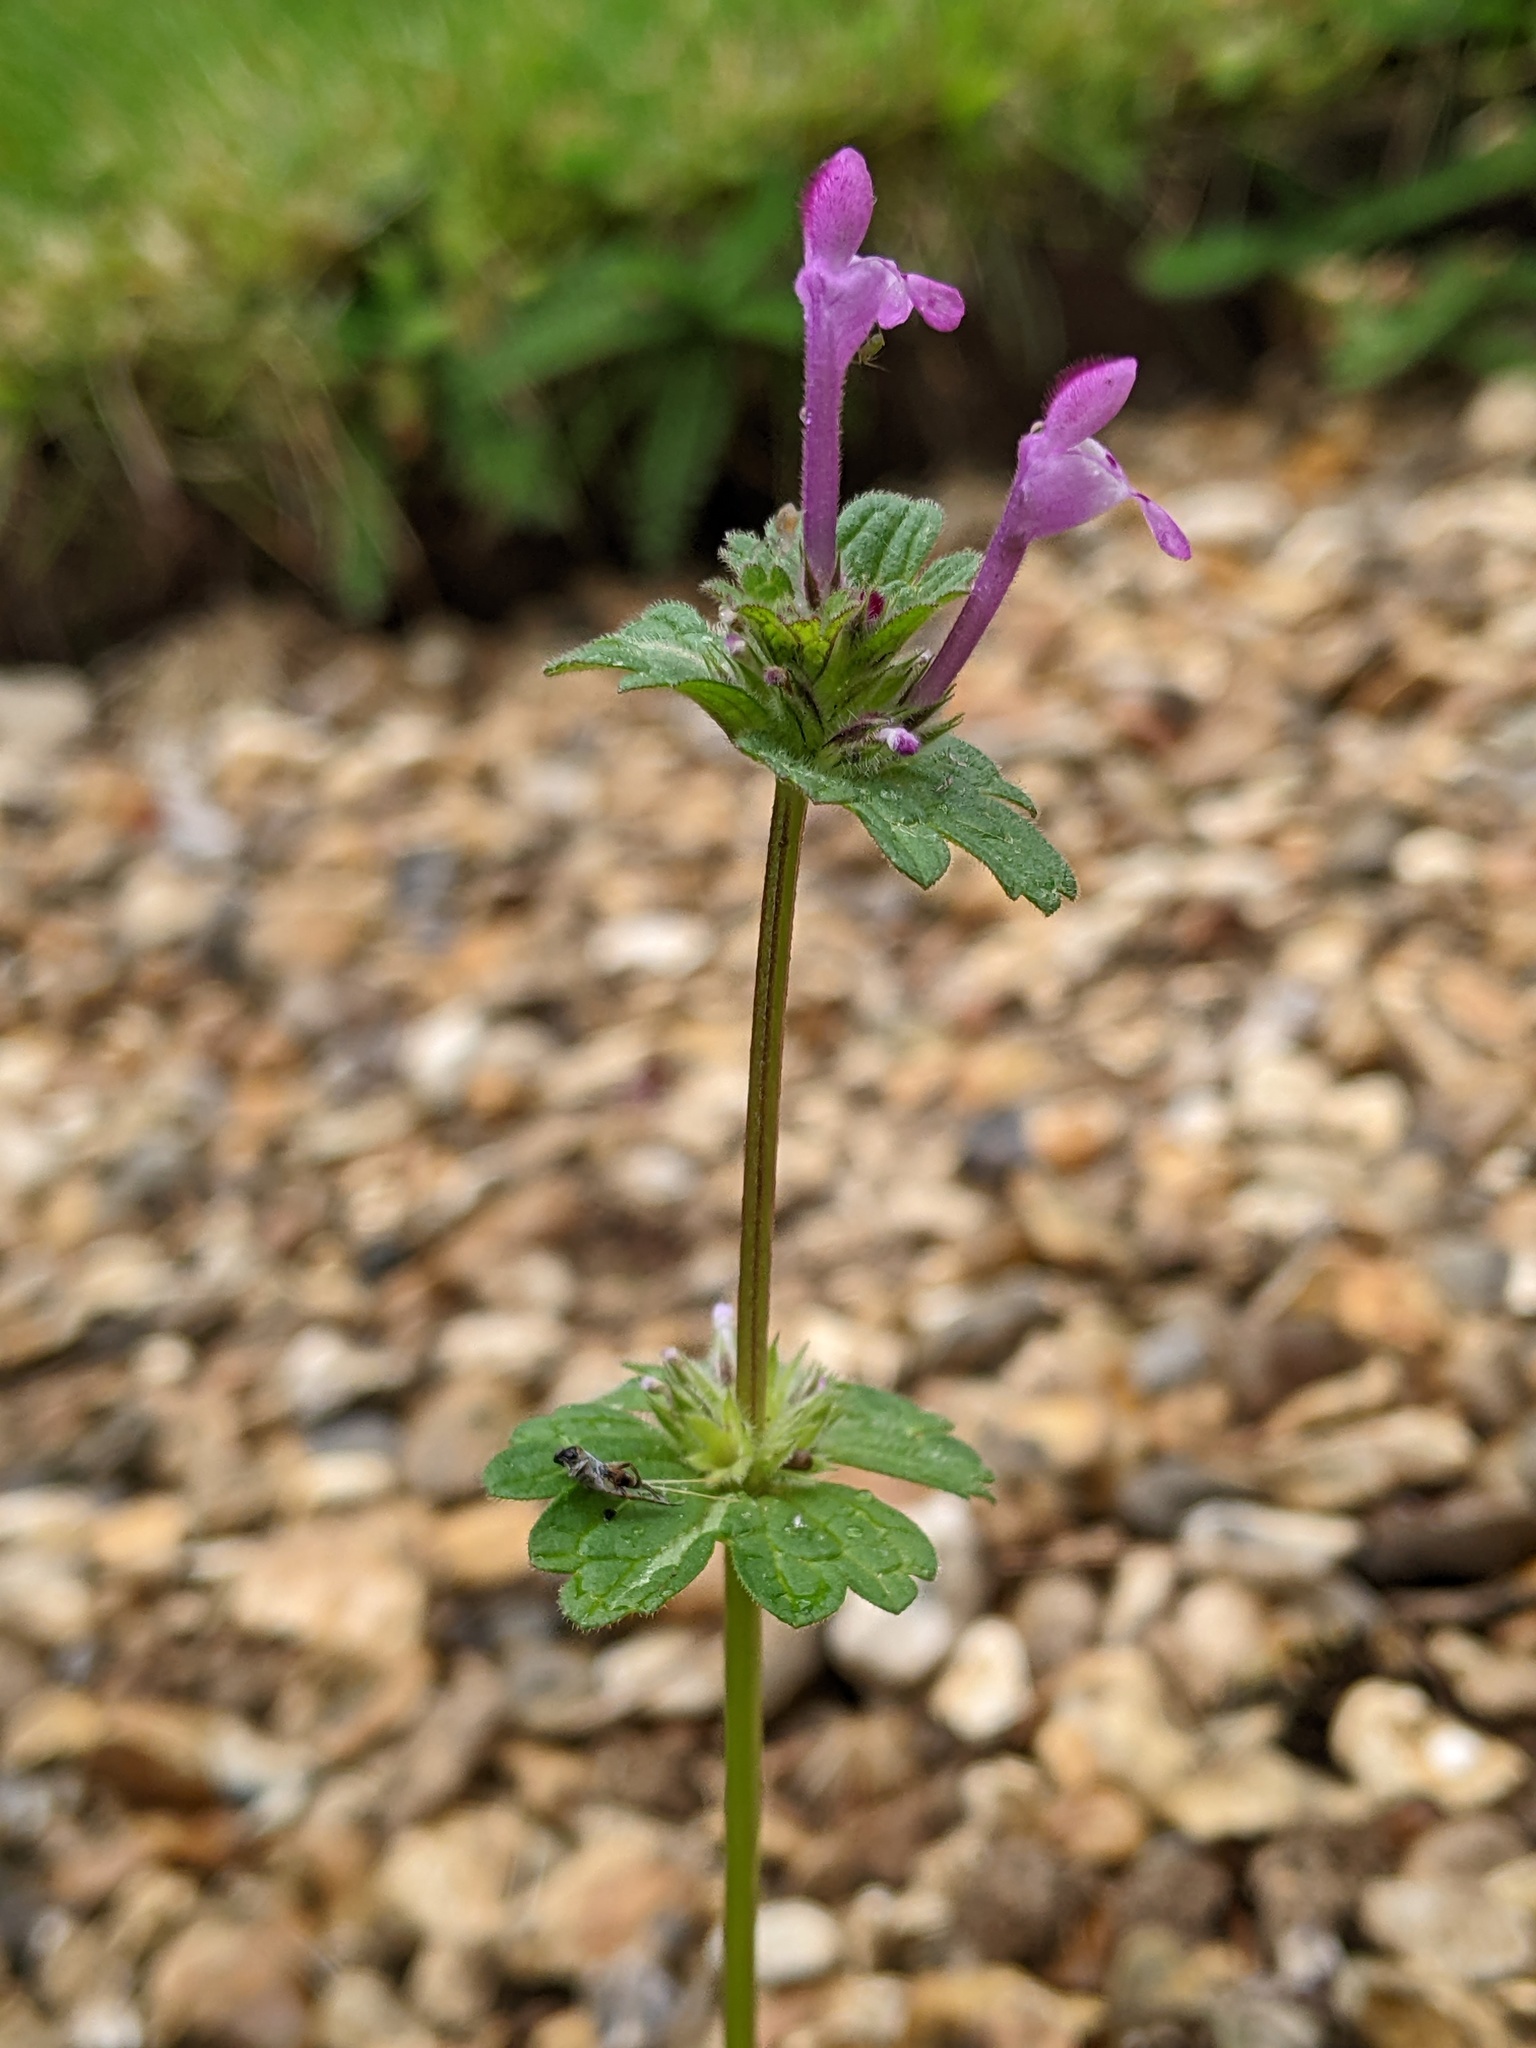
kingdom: Plantae
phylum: Tracheophyta
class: Magnoliopsida
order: Lamiales
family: Lamiaceae
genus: Lamium
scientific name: Lamium amplexicaule
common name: Henbit dead-nettle
